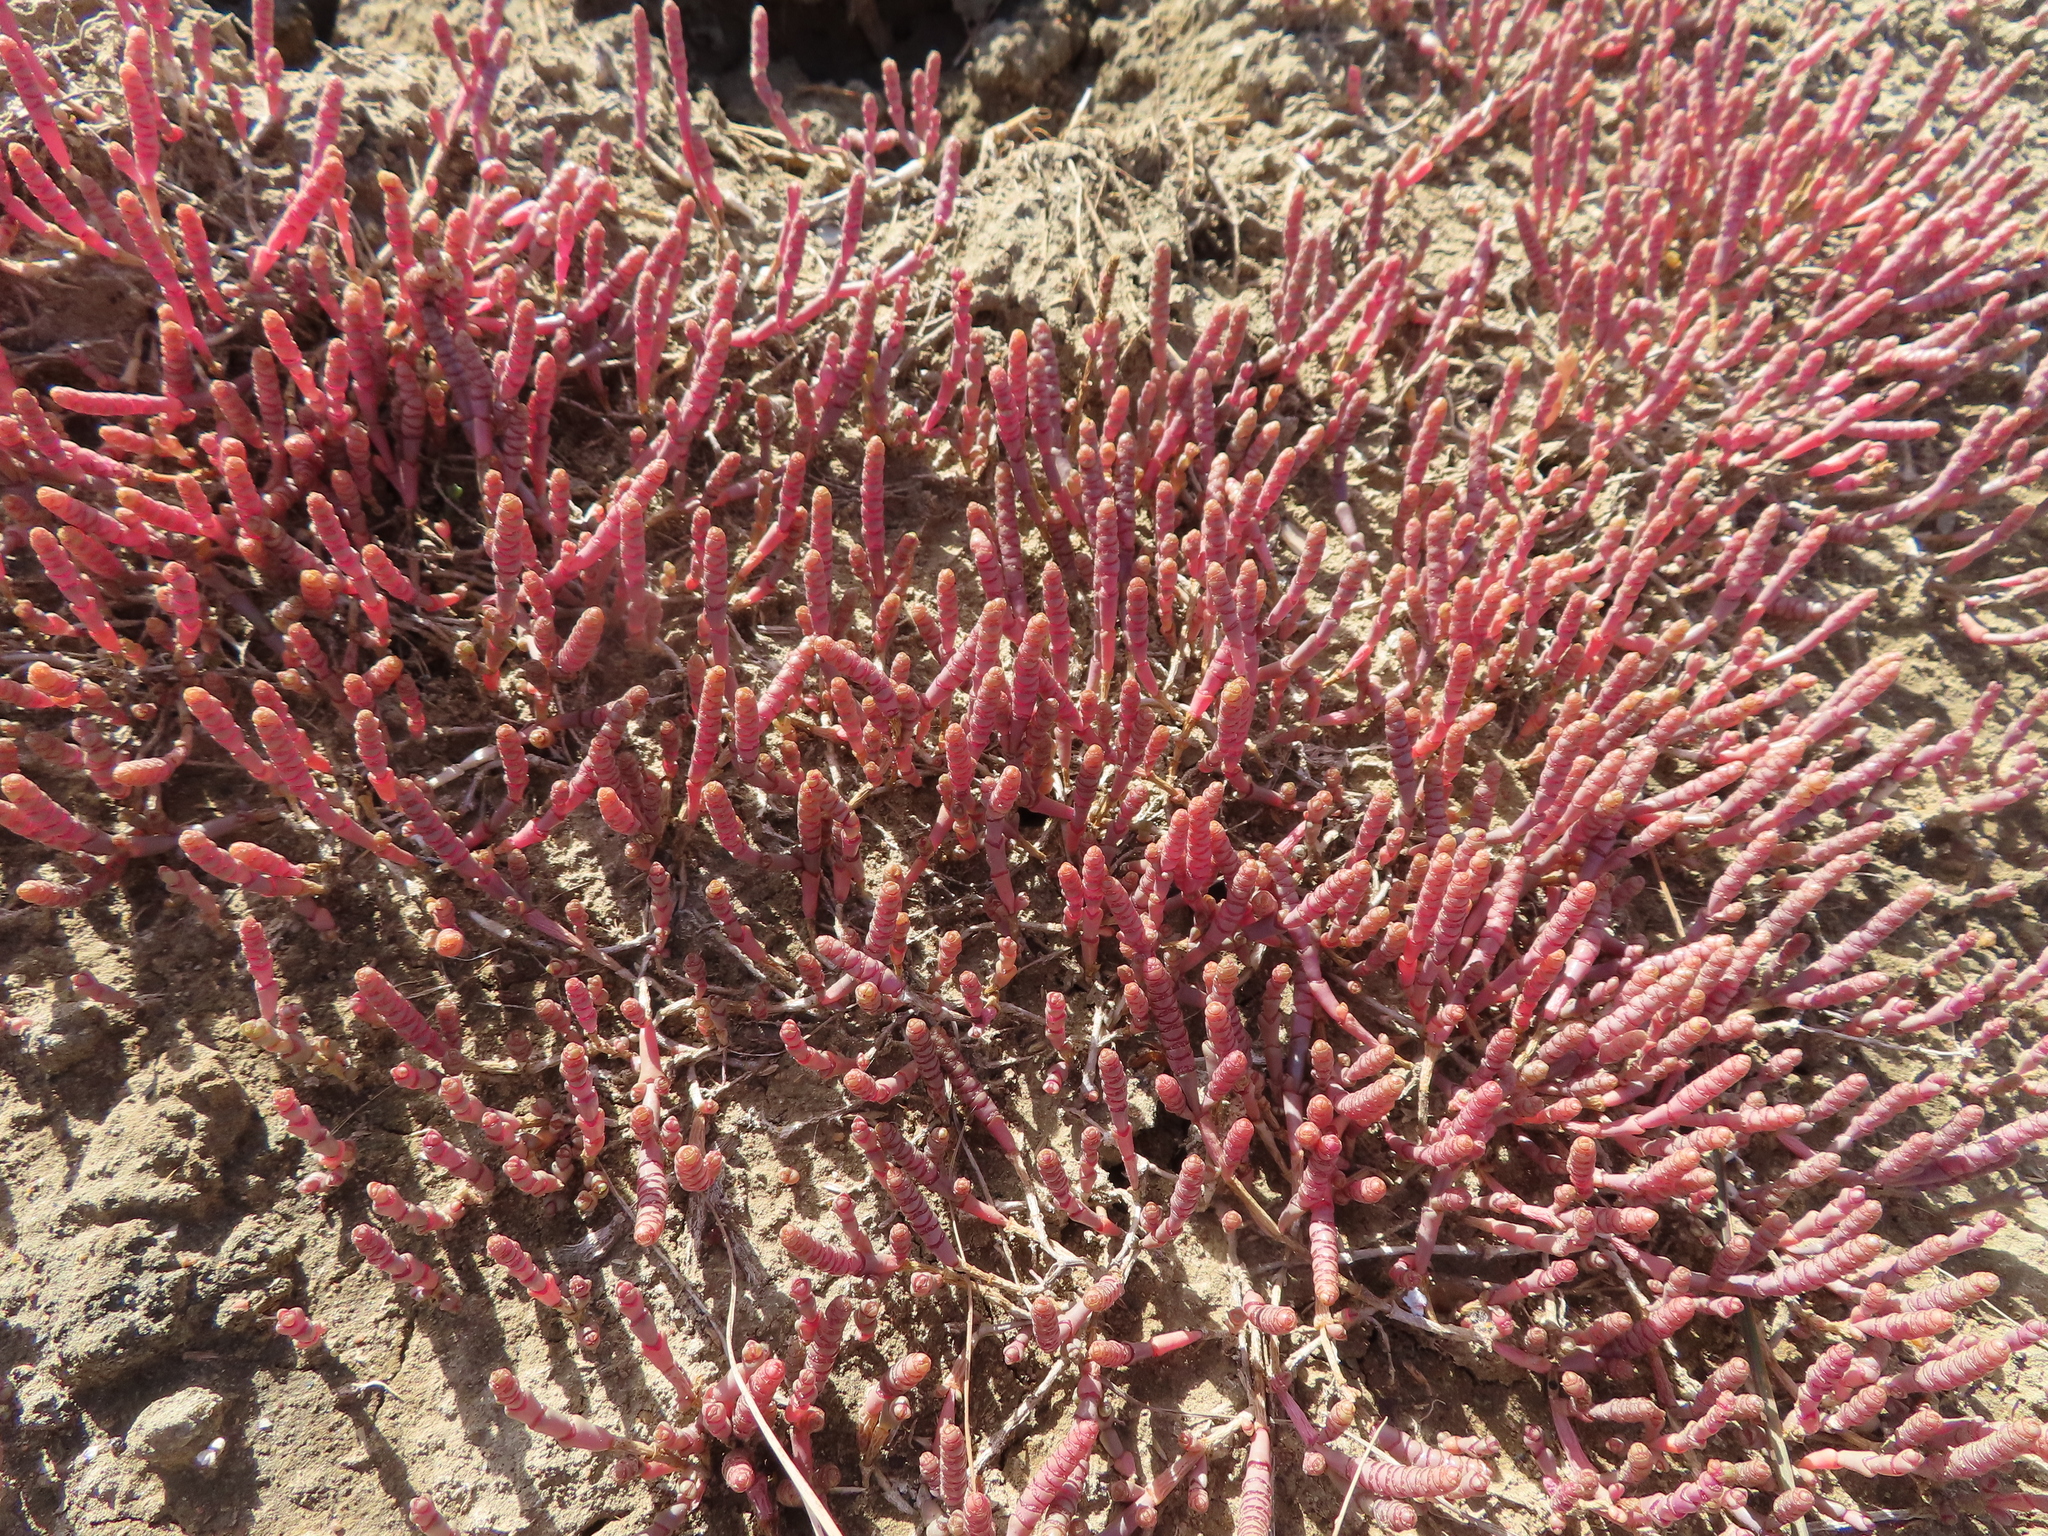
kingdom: Plantae
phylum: Tracheophyta
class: Magnoliopsida
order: Caryophyllales
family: Amaranthaceae
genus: Salicornia
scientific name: Salicornia natalensis
